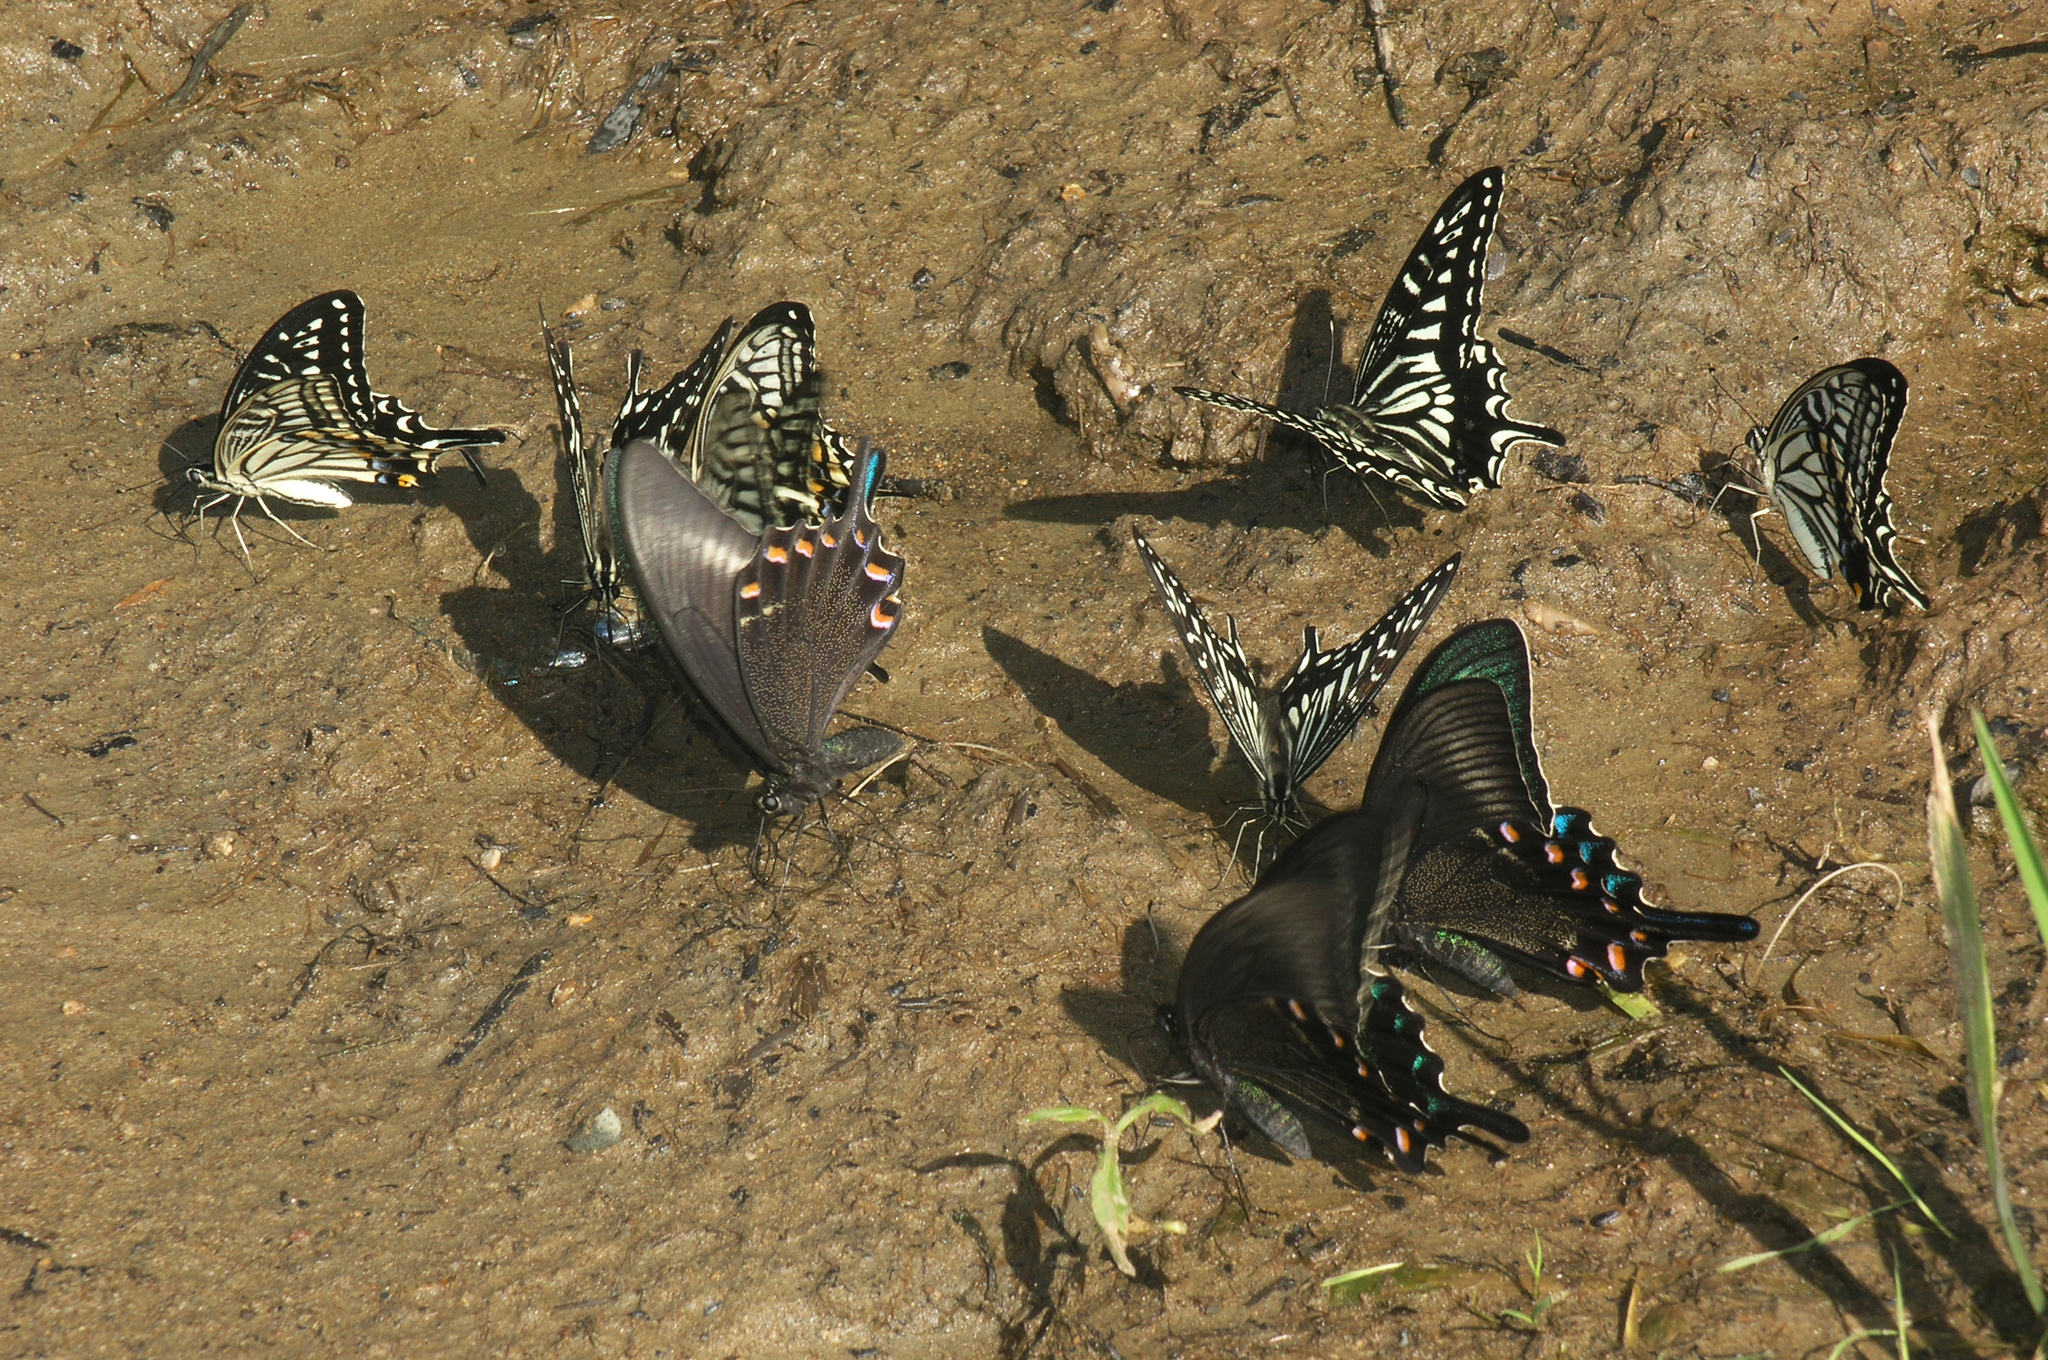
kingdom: Animalia
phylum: Arthropoda
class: Insecta
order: Lepidoptera
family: Papilionidae
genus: Papilio
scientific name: Papilio xuthus
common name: Asian swallowtail
